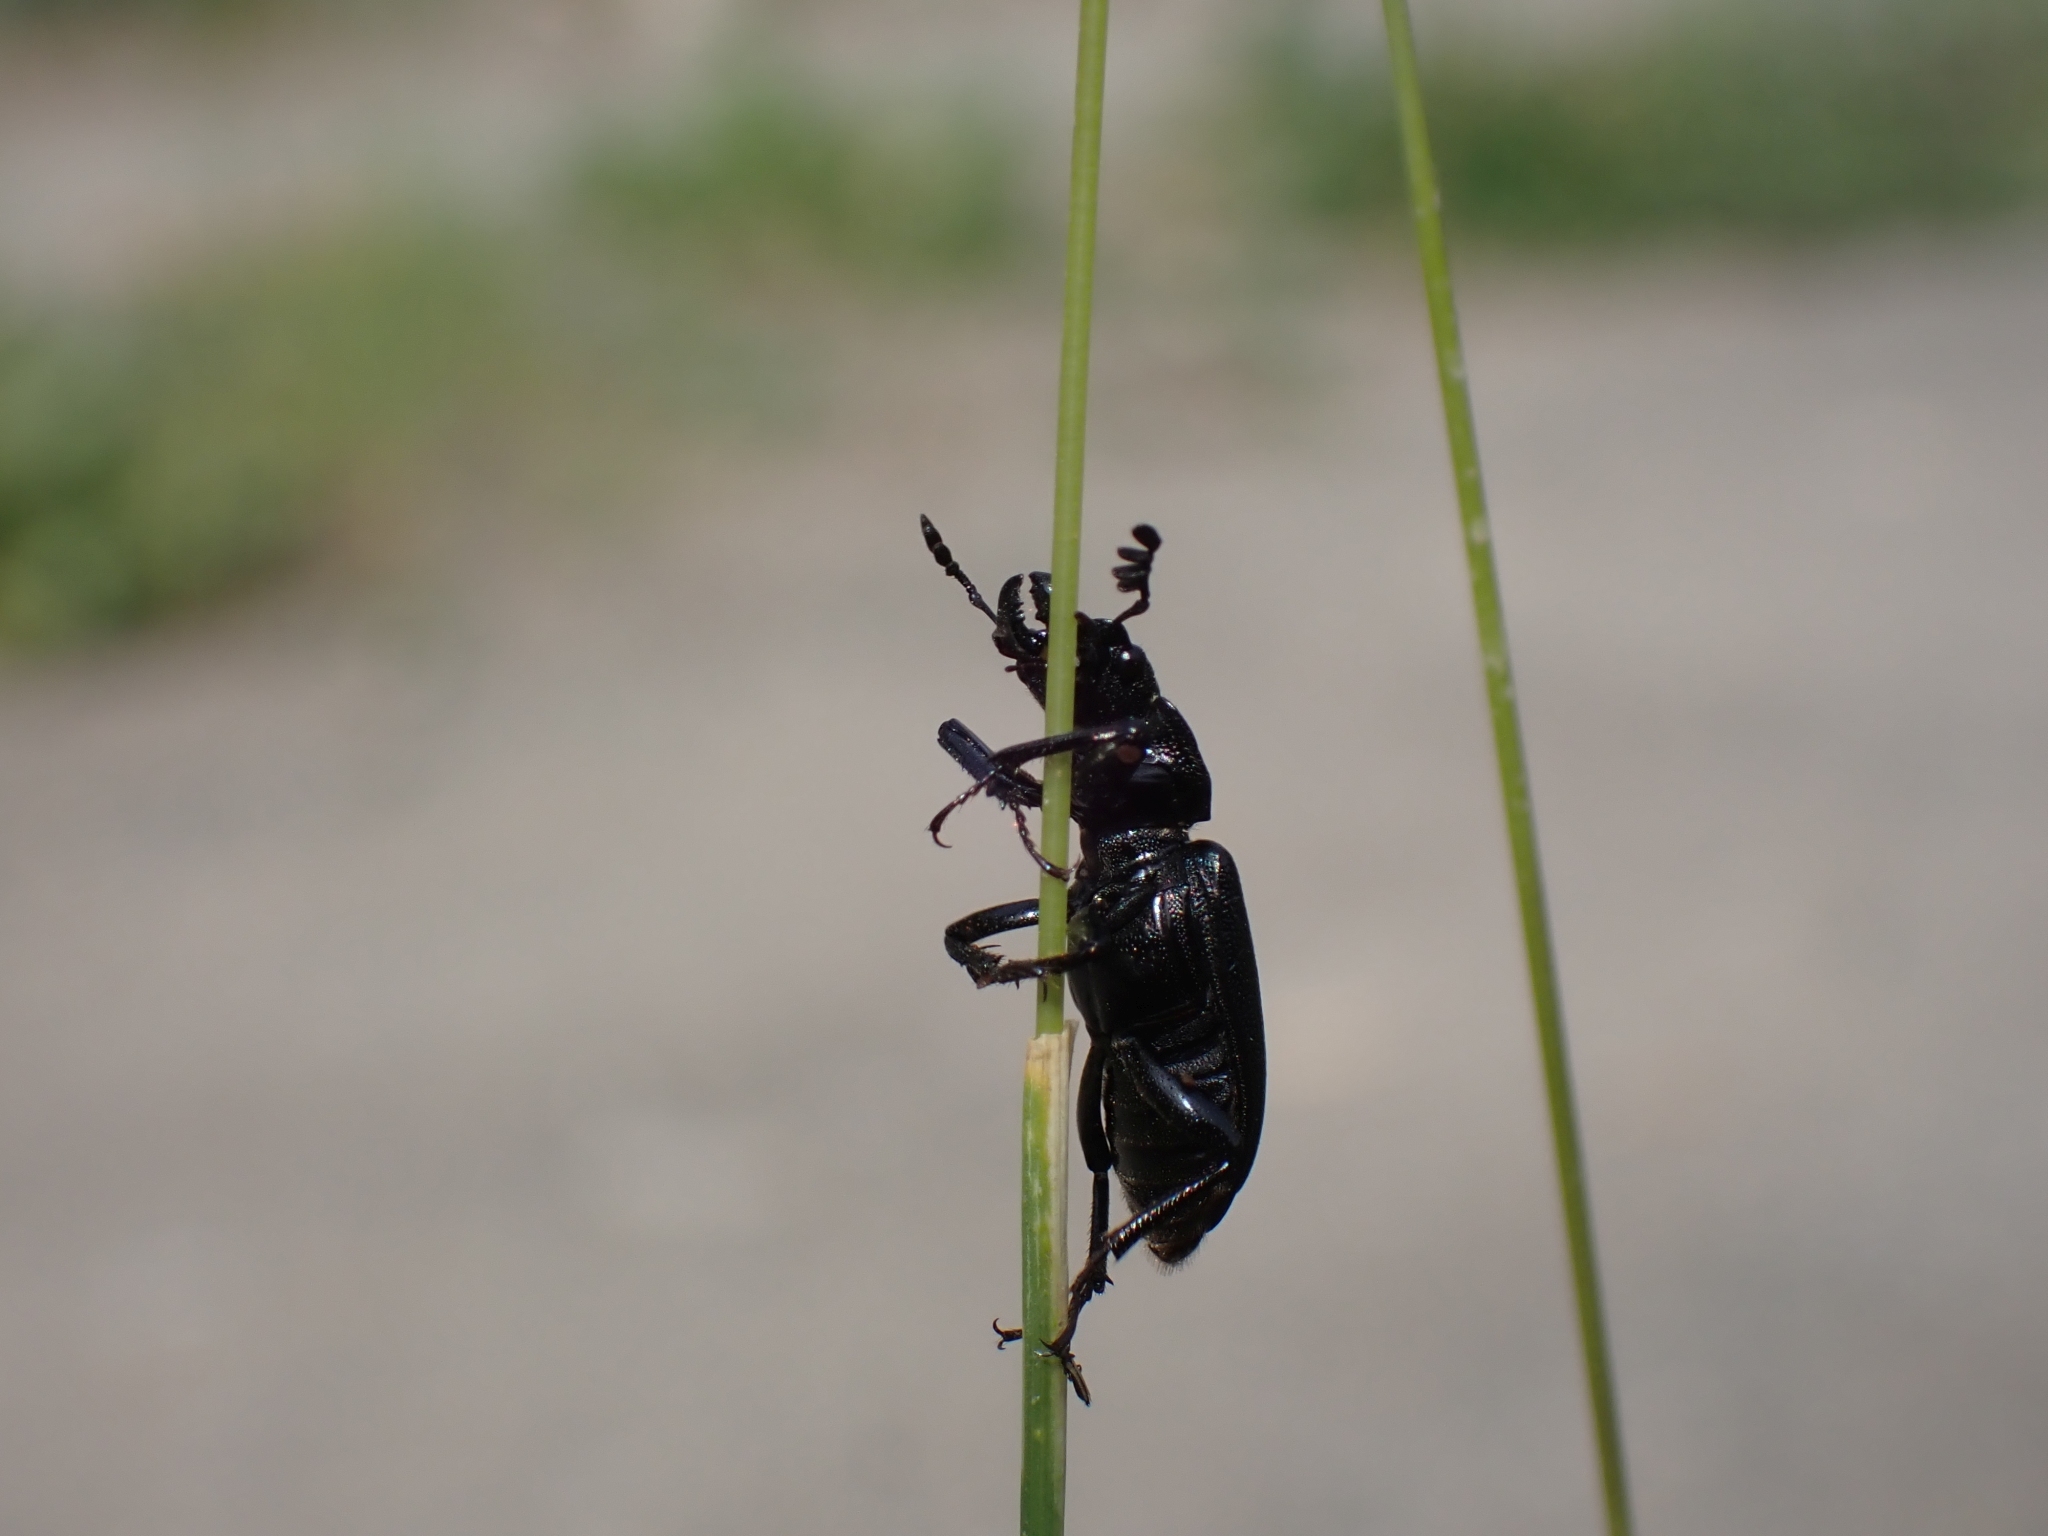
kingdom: Animalia
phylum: Arthropoda
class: Insecta
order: Coleoptera
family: Lucanidae
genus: Platycerus
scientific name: Platycerus marginalis
